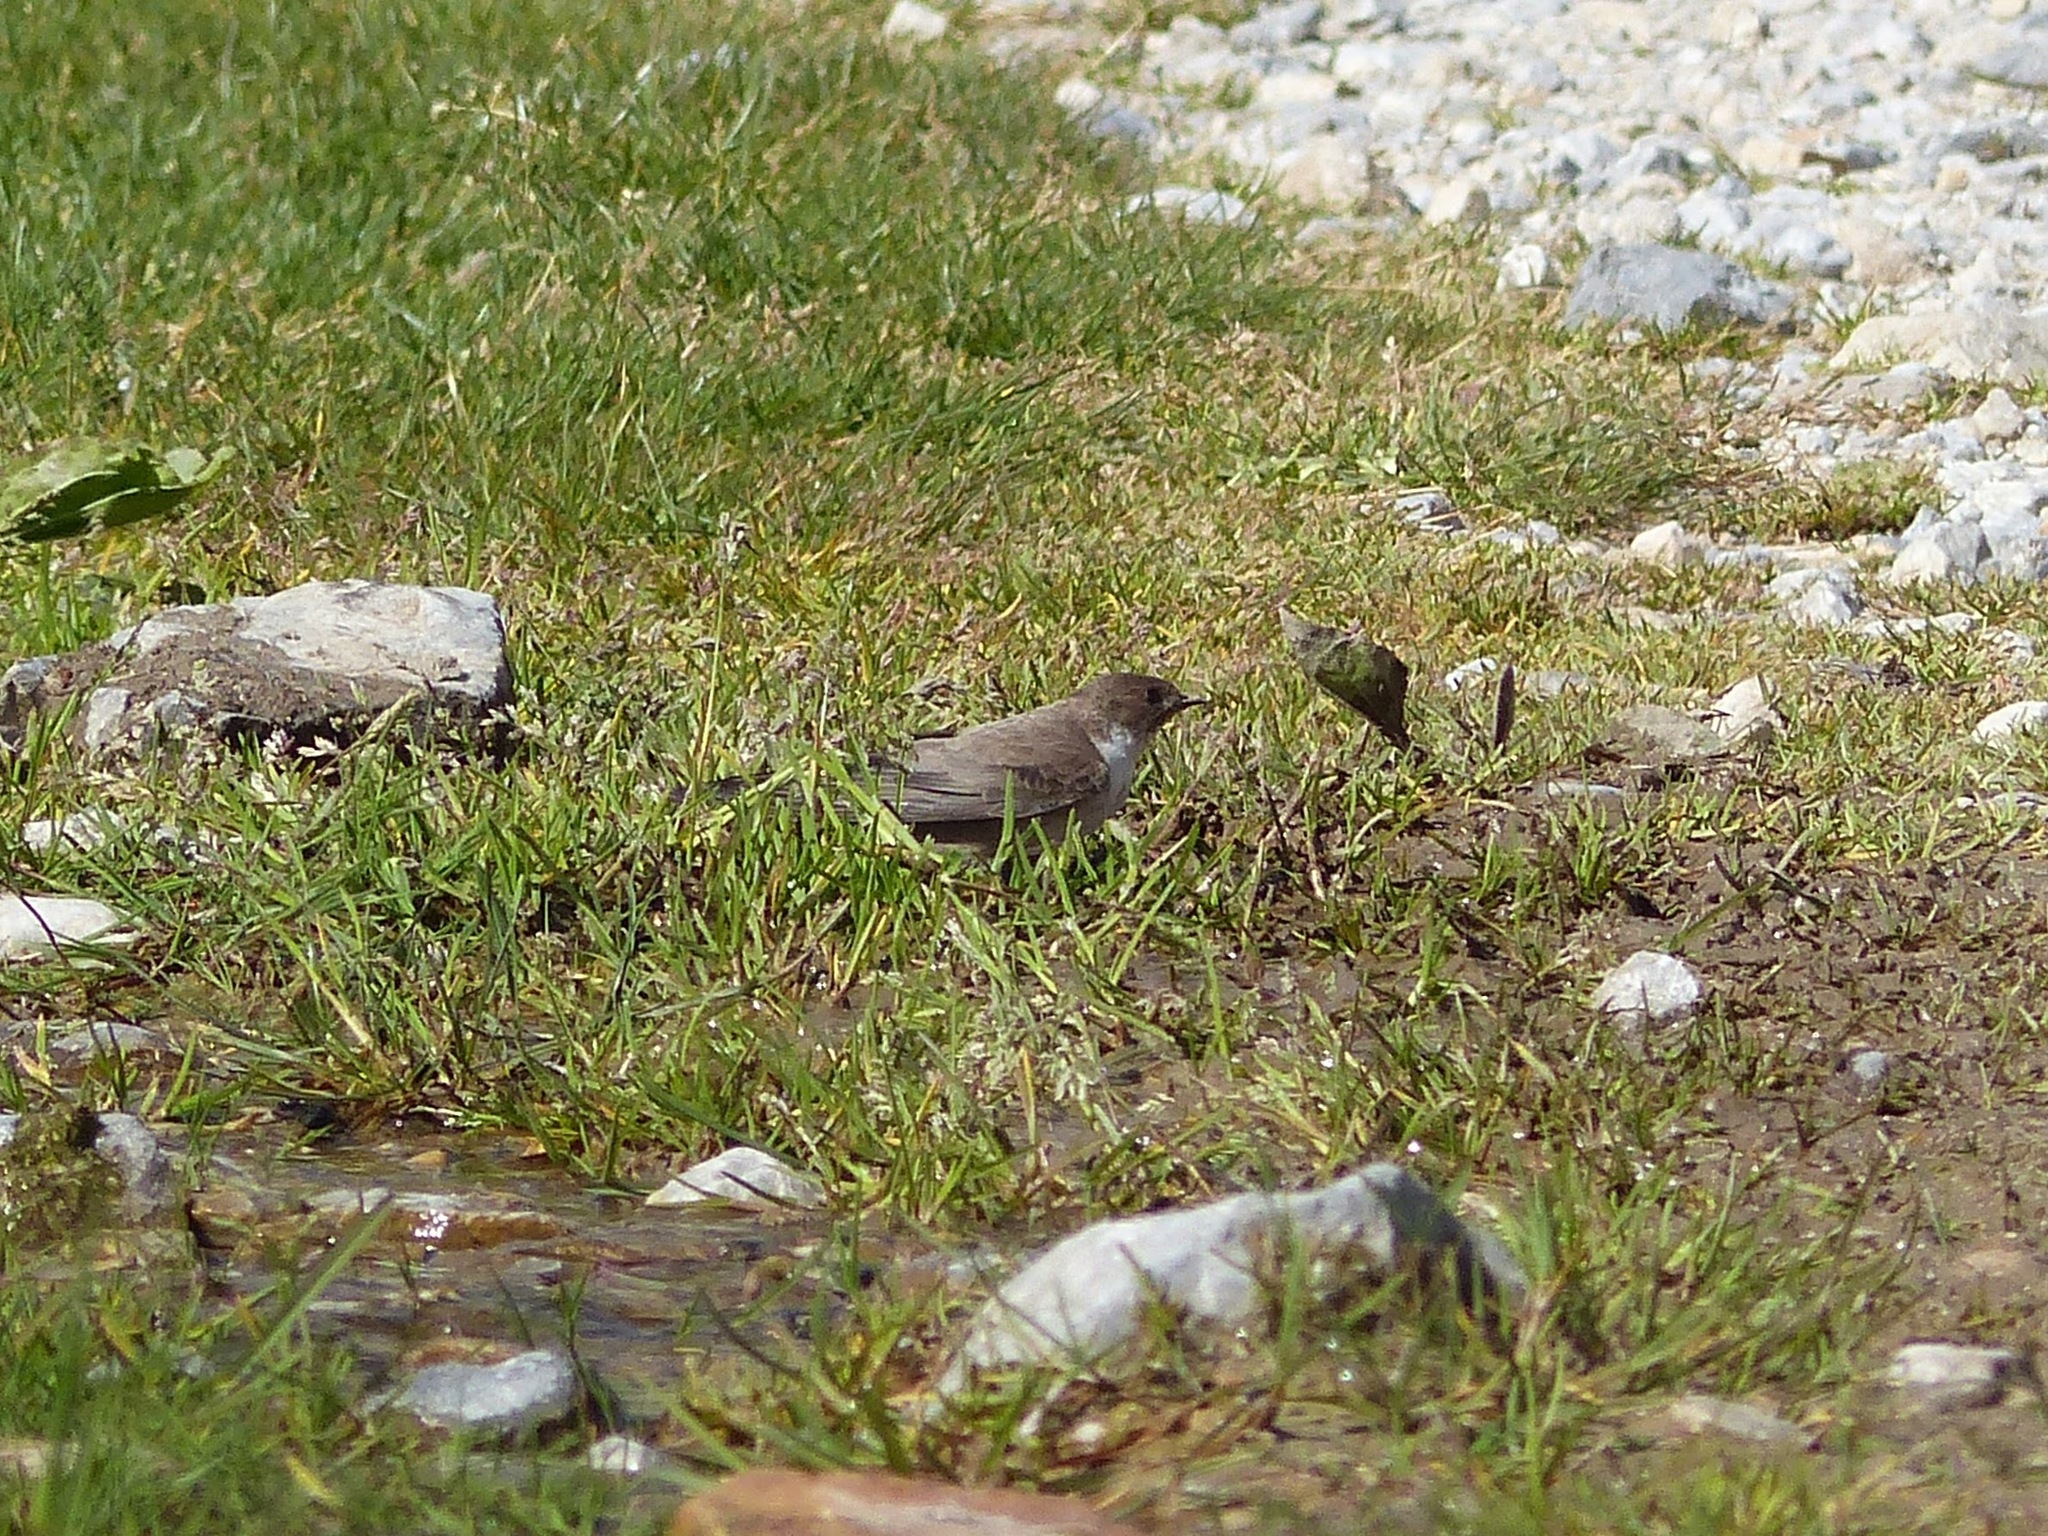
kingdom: Animalia
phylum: Chordata
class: Aves
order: Passeriformes
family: Hirundinidae
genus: Ptyonoprogne
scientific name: Ptyonoprogne rupestris
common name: Eurasian crag martin
